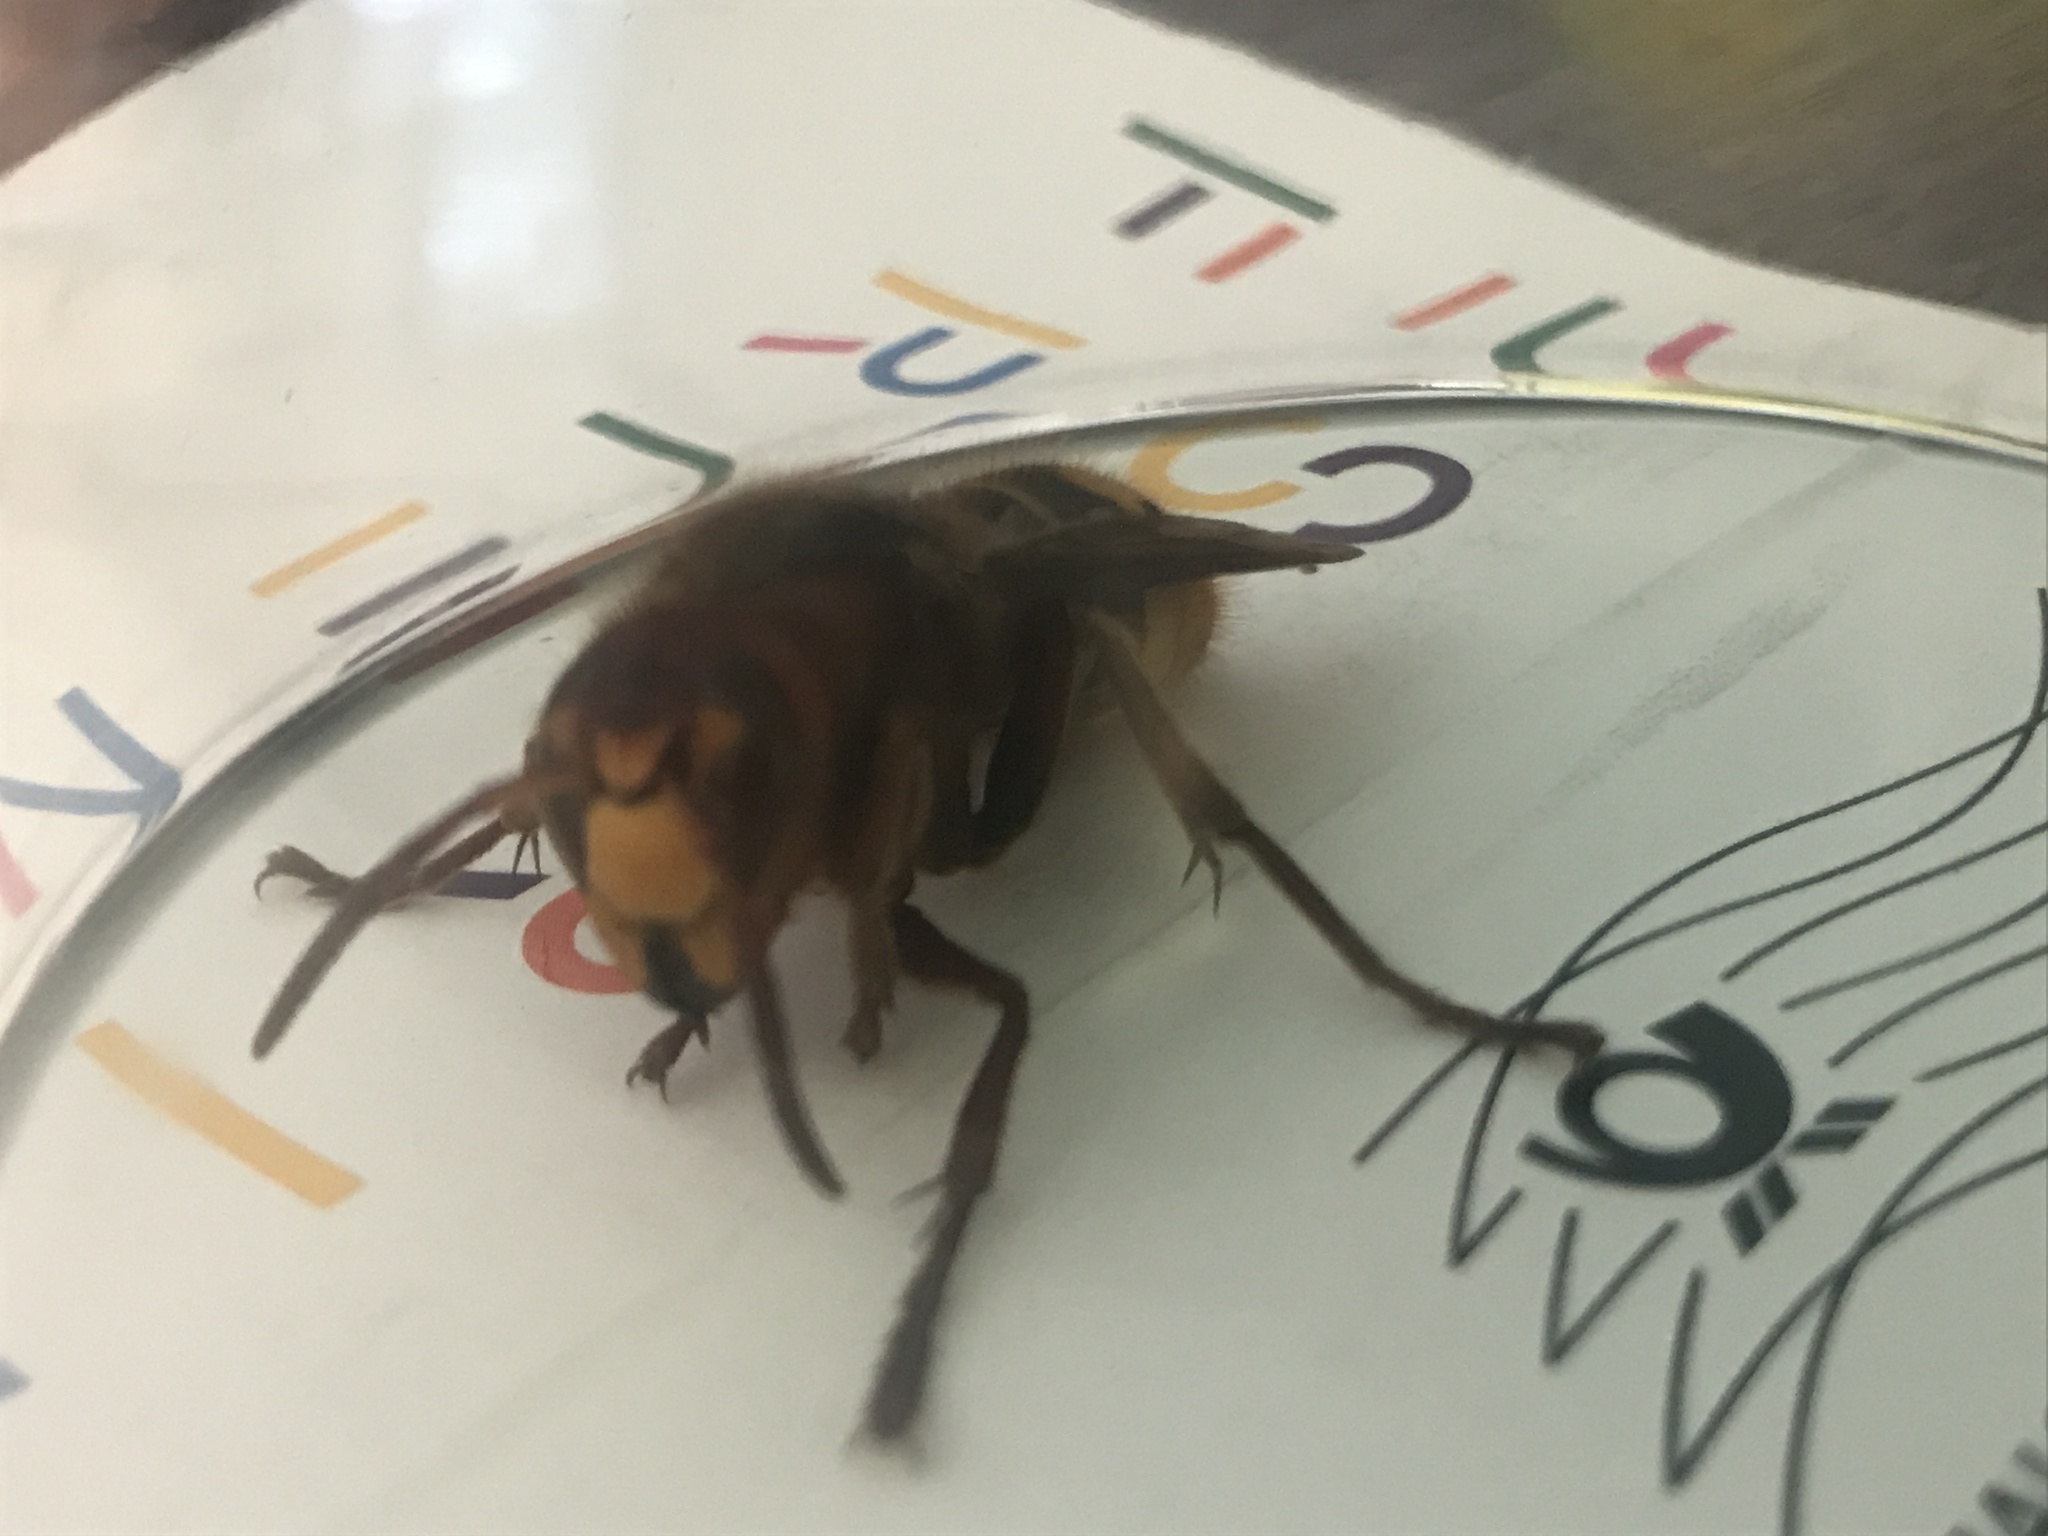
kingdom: Animalia
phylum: Arthropoda
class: Insecta
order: Hymenoptera
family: Vespidae
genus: Vespa
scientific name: Vespa crabro
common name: Hornet
